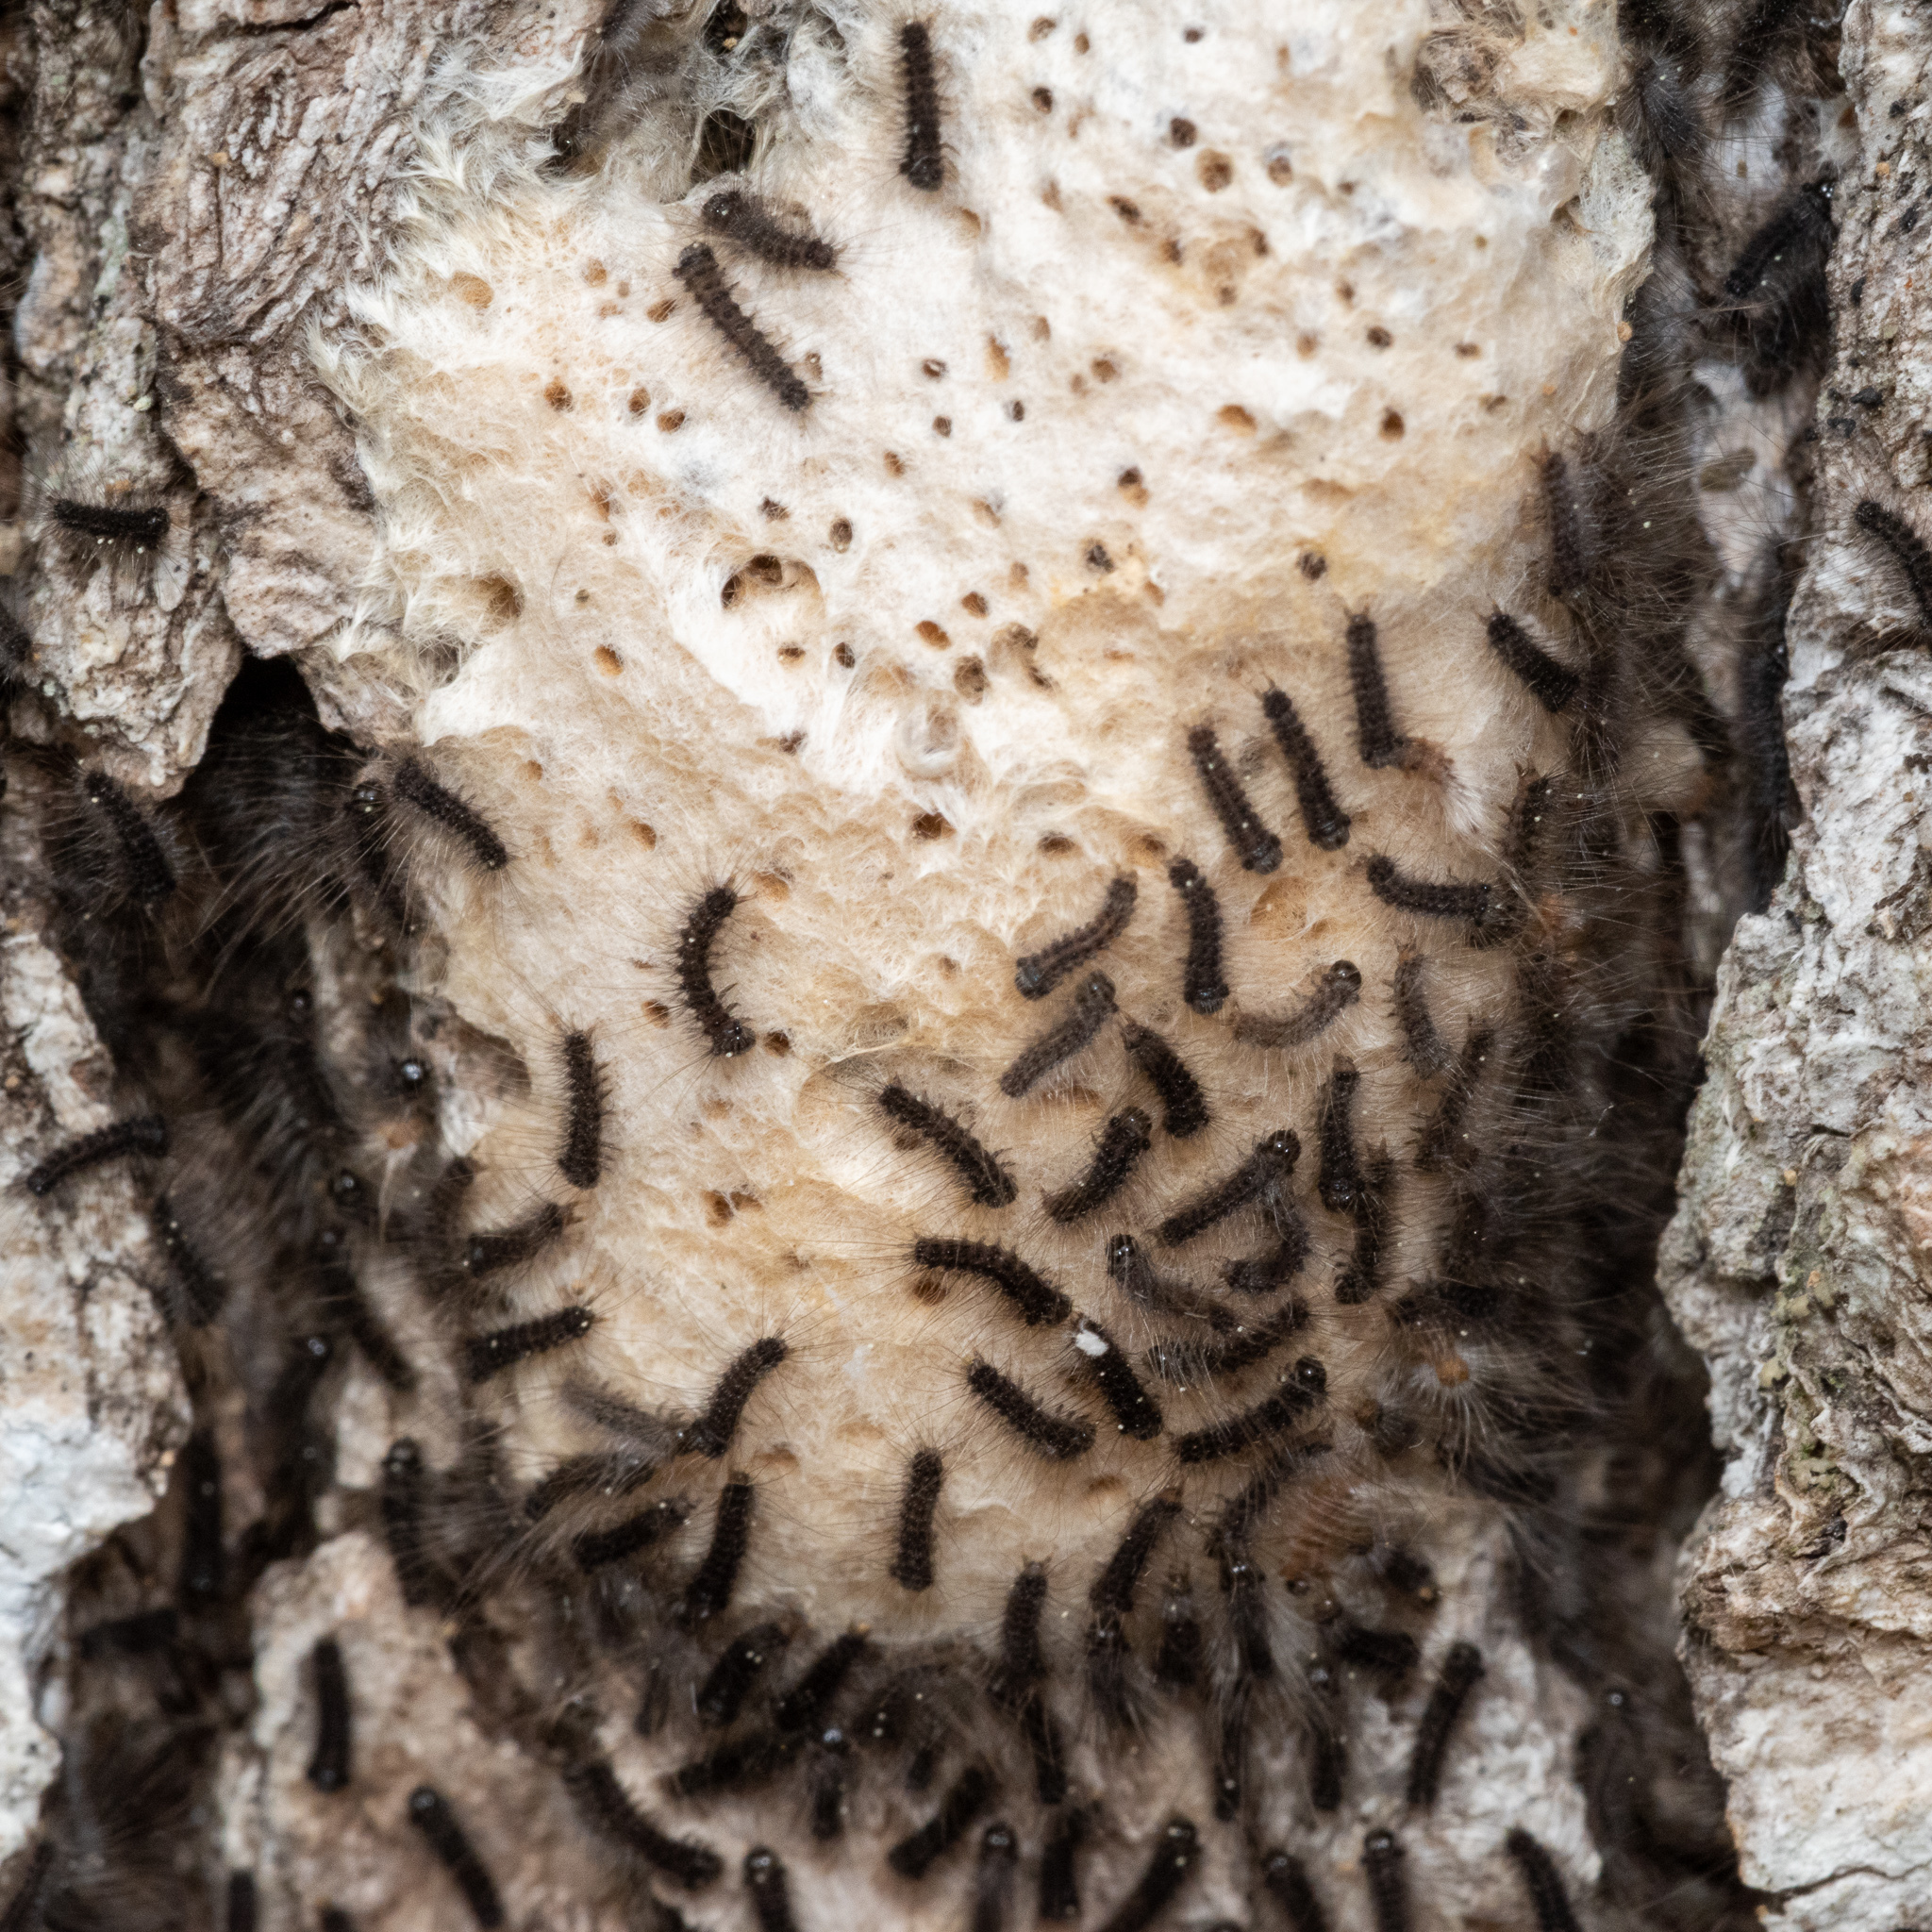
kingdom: Animalia
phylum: Arthropoda
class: Insecta
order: Lepidoptera
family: Erebidae
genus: Lymantria
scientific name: Lymantria dispar
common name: Gypsy moth
